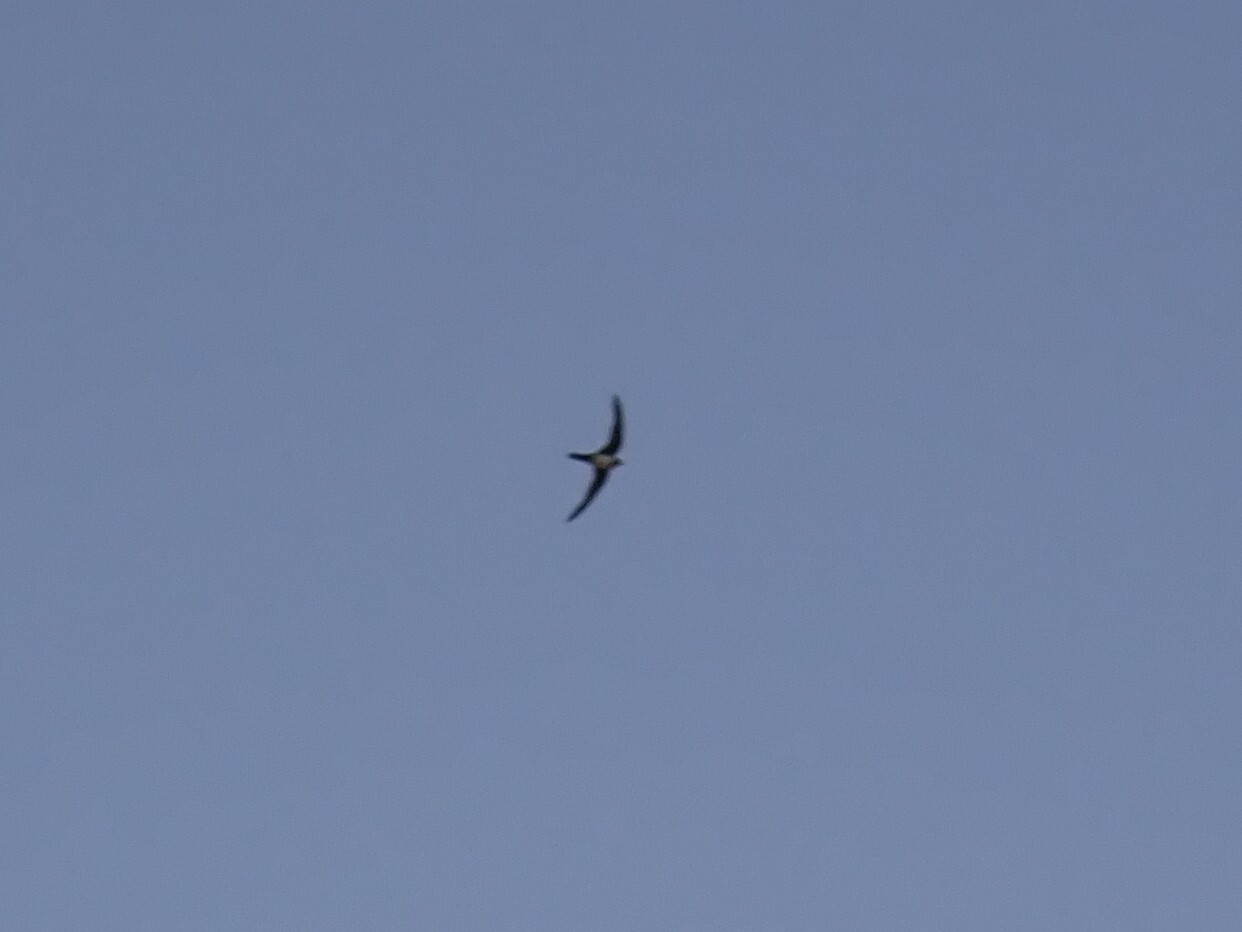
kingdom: Animalia
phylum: Chordata
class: Aves
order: Apodiformes
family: Apodidae
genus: Tachymarptis
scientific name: Tachymarptis melba
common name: Alpine swift
